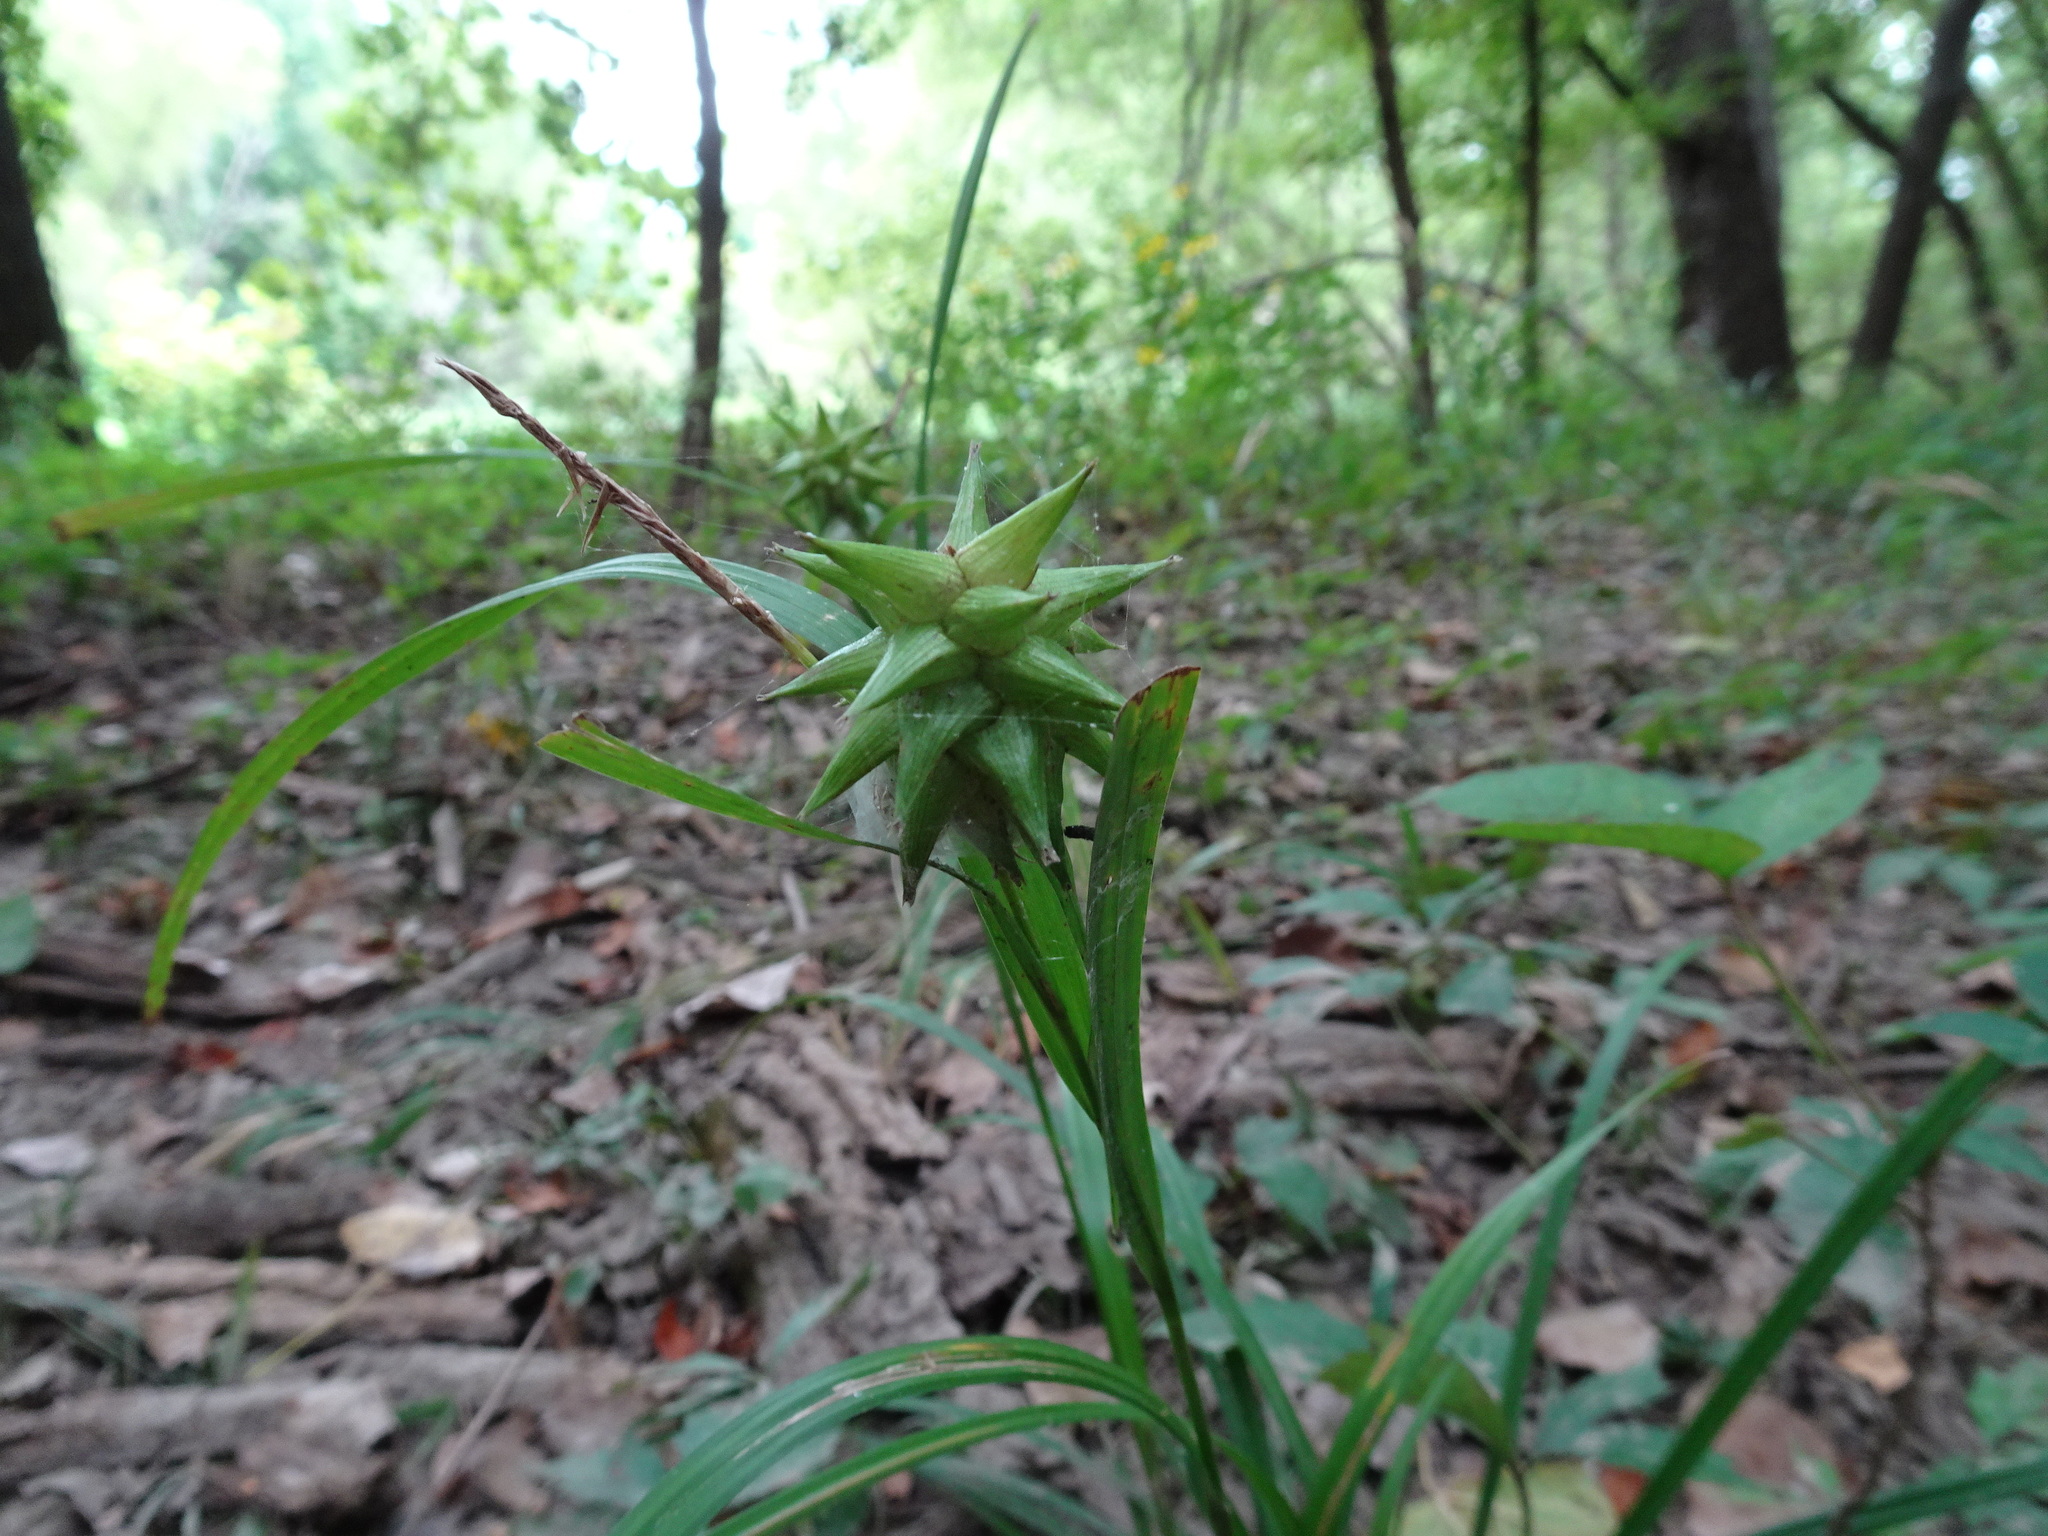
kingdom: Plantae
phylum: Tracheophyta
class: Liliopsida
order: Poales
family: Cyperaceae
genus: Carex
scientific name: Carex grayi
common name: Asa gray's sedge
